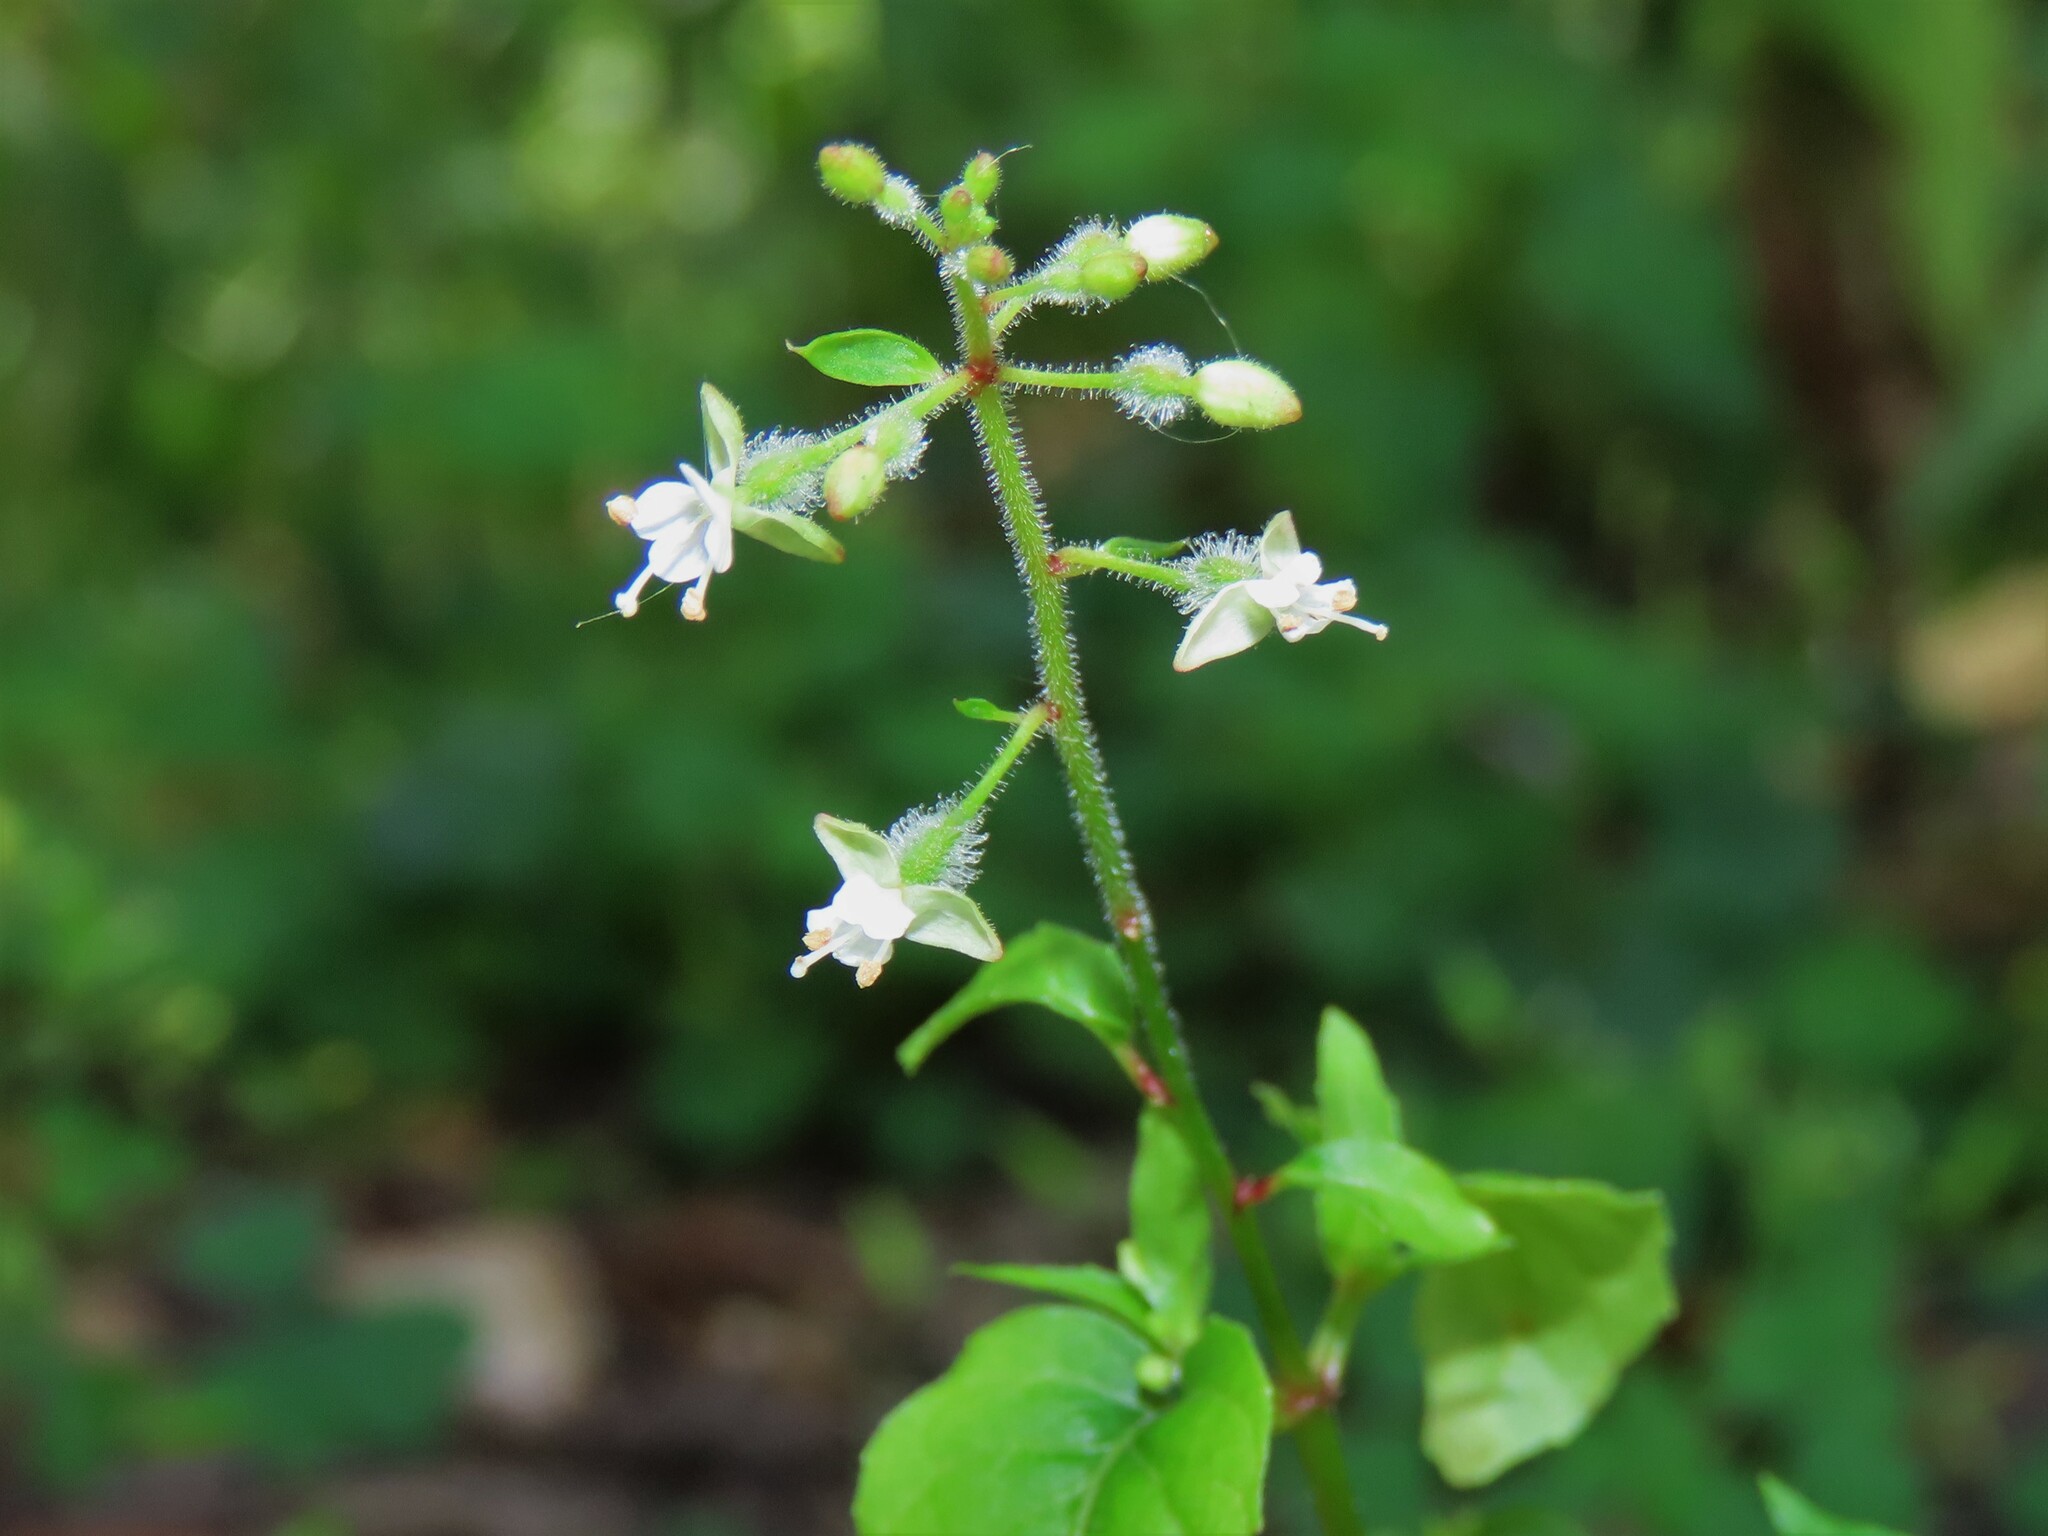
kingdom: Plantae
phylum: Tracheophyta
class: Magnoliopsida
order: Myrtales
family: Onagraceae
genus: Circaea
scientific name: Circaea canadensis
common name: Broad-leaved enchanter's nightshade
